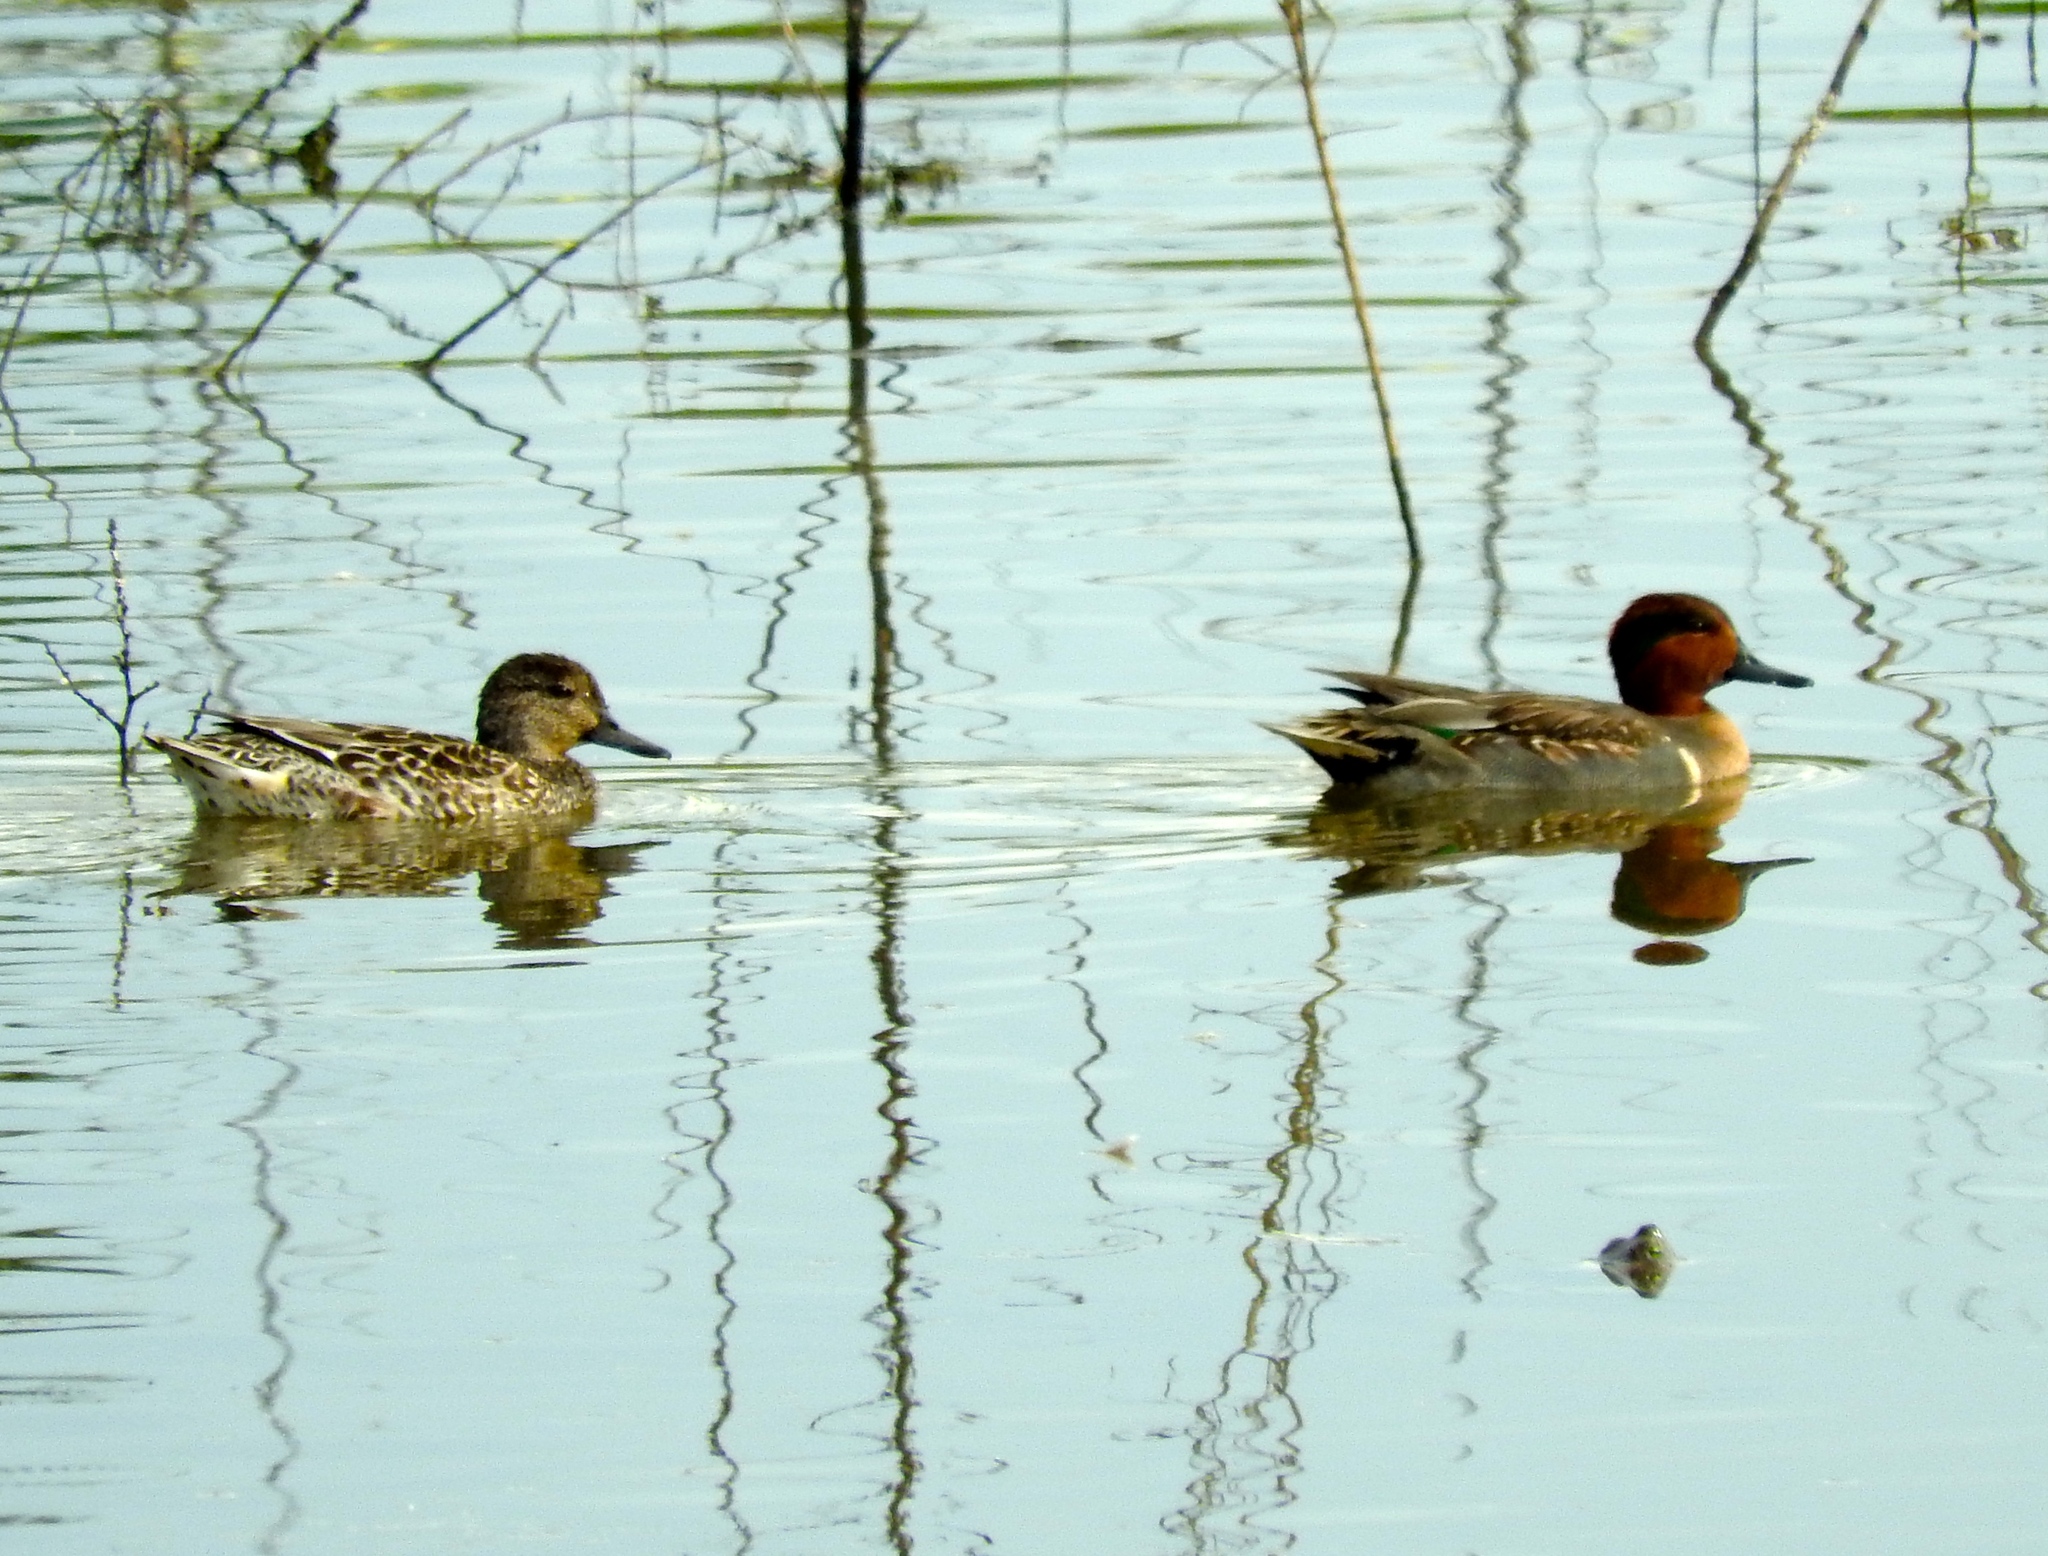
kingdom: Animalia
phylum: Chordata
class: Aves
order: Anseriformes
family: Anatidae
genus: Anas
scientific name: Anas carolinensis
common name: Green-winged teal
